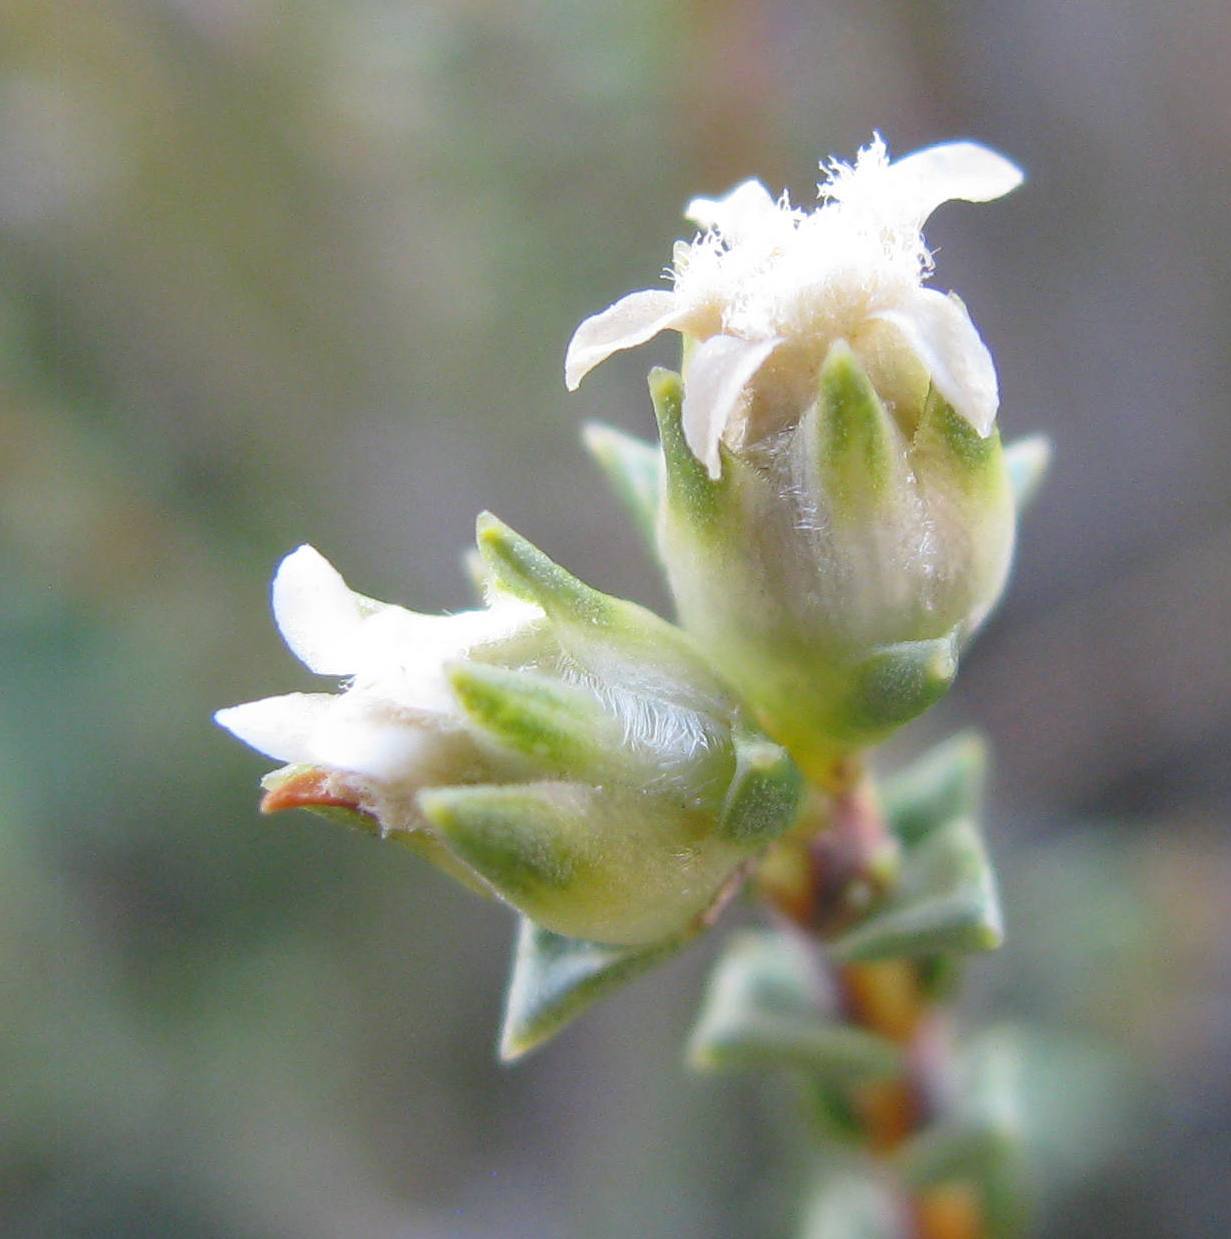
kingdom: Plantae
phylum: Tracheophyta
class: Magnoliopsida
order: Sapindales
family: Rutaceae
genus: Euchaetis
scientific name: Euchaetis pungens
